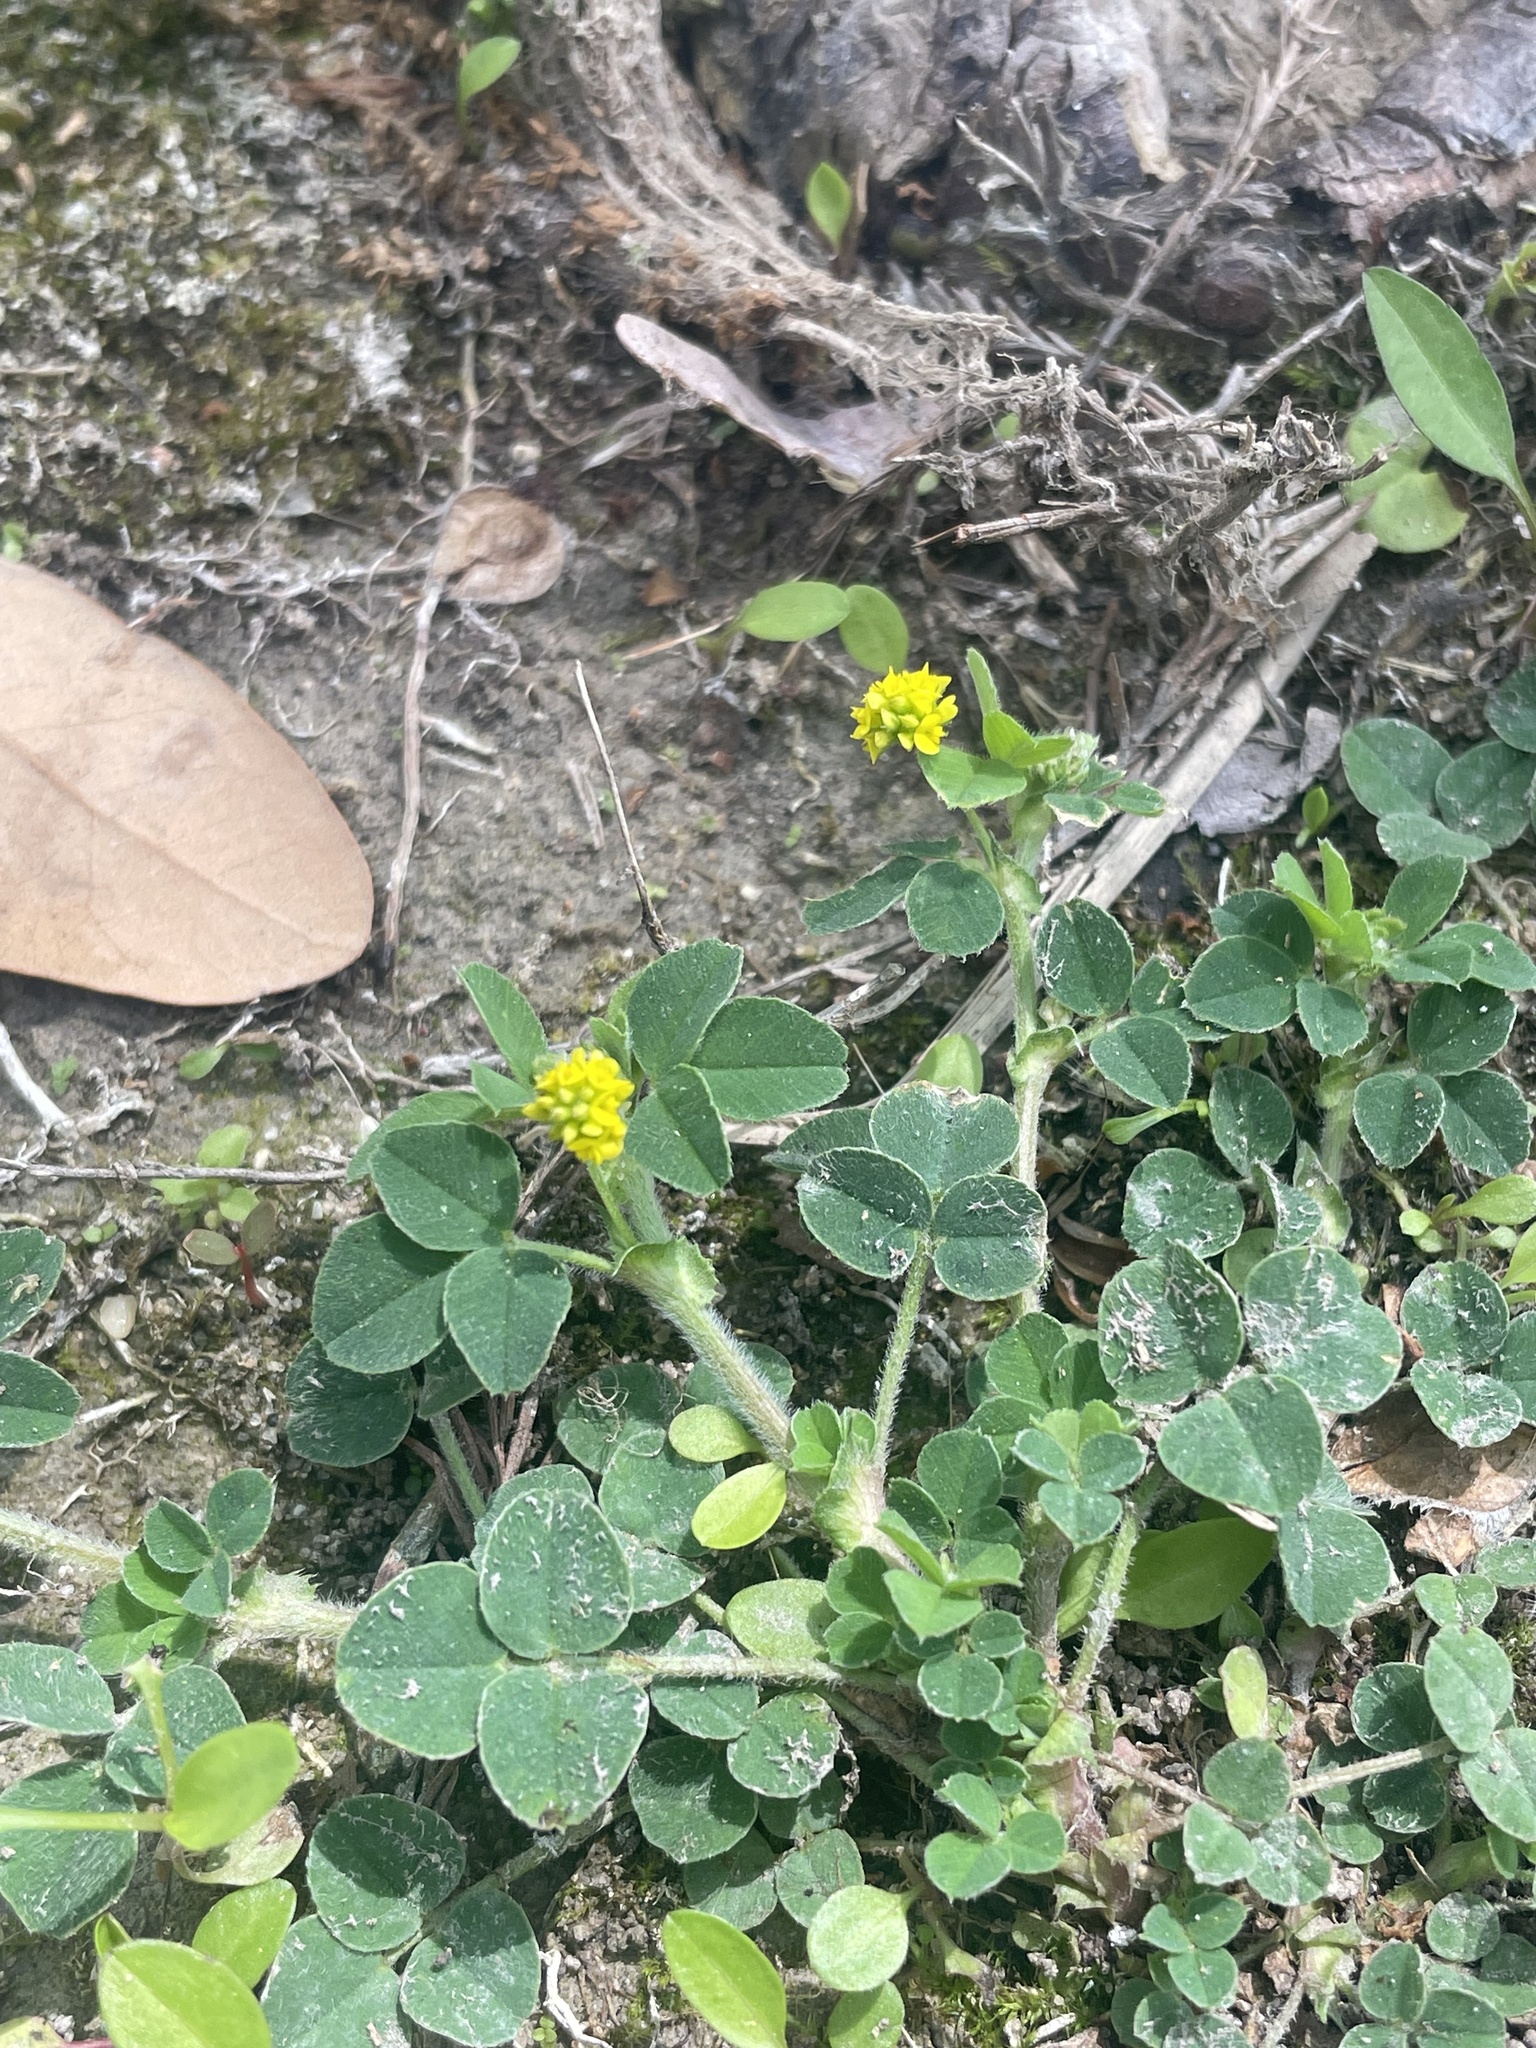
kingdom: Plantae
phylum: Tracheophyta
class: Magnoliopsida
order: Fabales
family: Fabaceae
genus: Medicago
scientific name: Medicago lupulina
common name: Black medick
